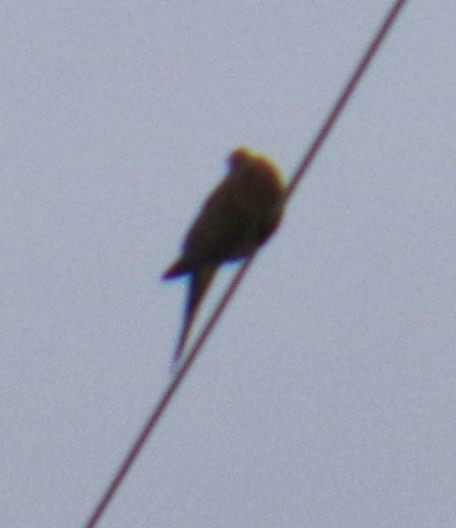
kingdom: Animalia
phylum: Chordata
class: Aves
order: Columbiformes
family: Columbidae
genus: Zenaida
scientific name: Zenaida macroura
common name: Mourning dove
